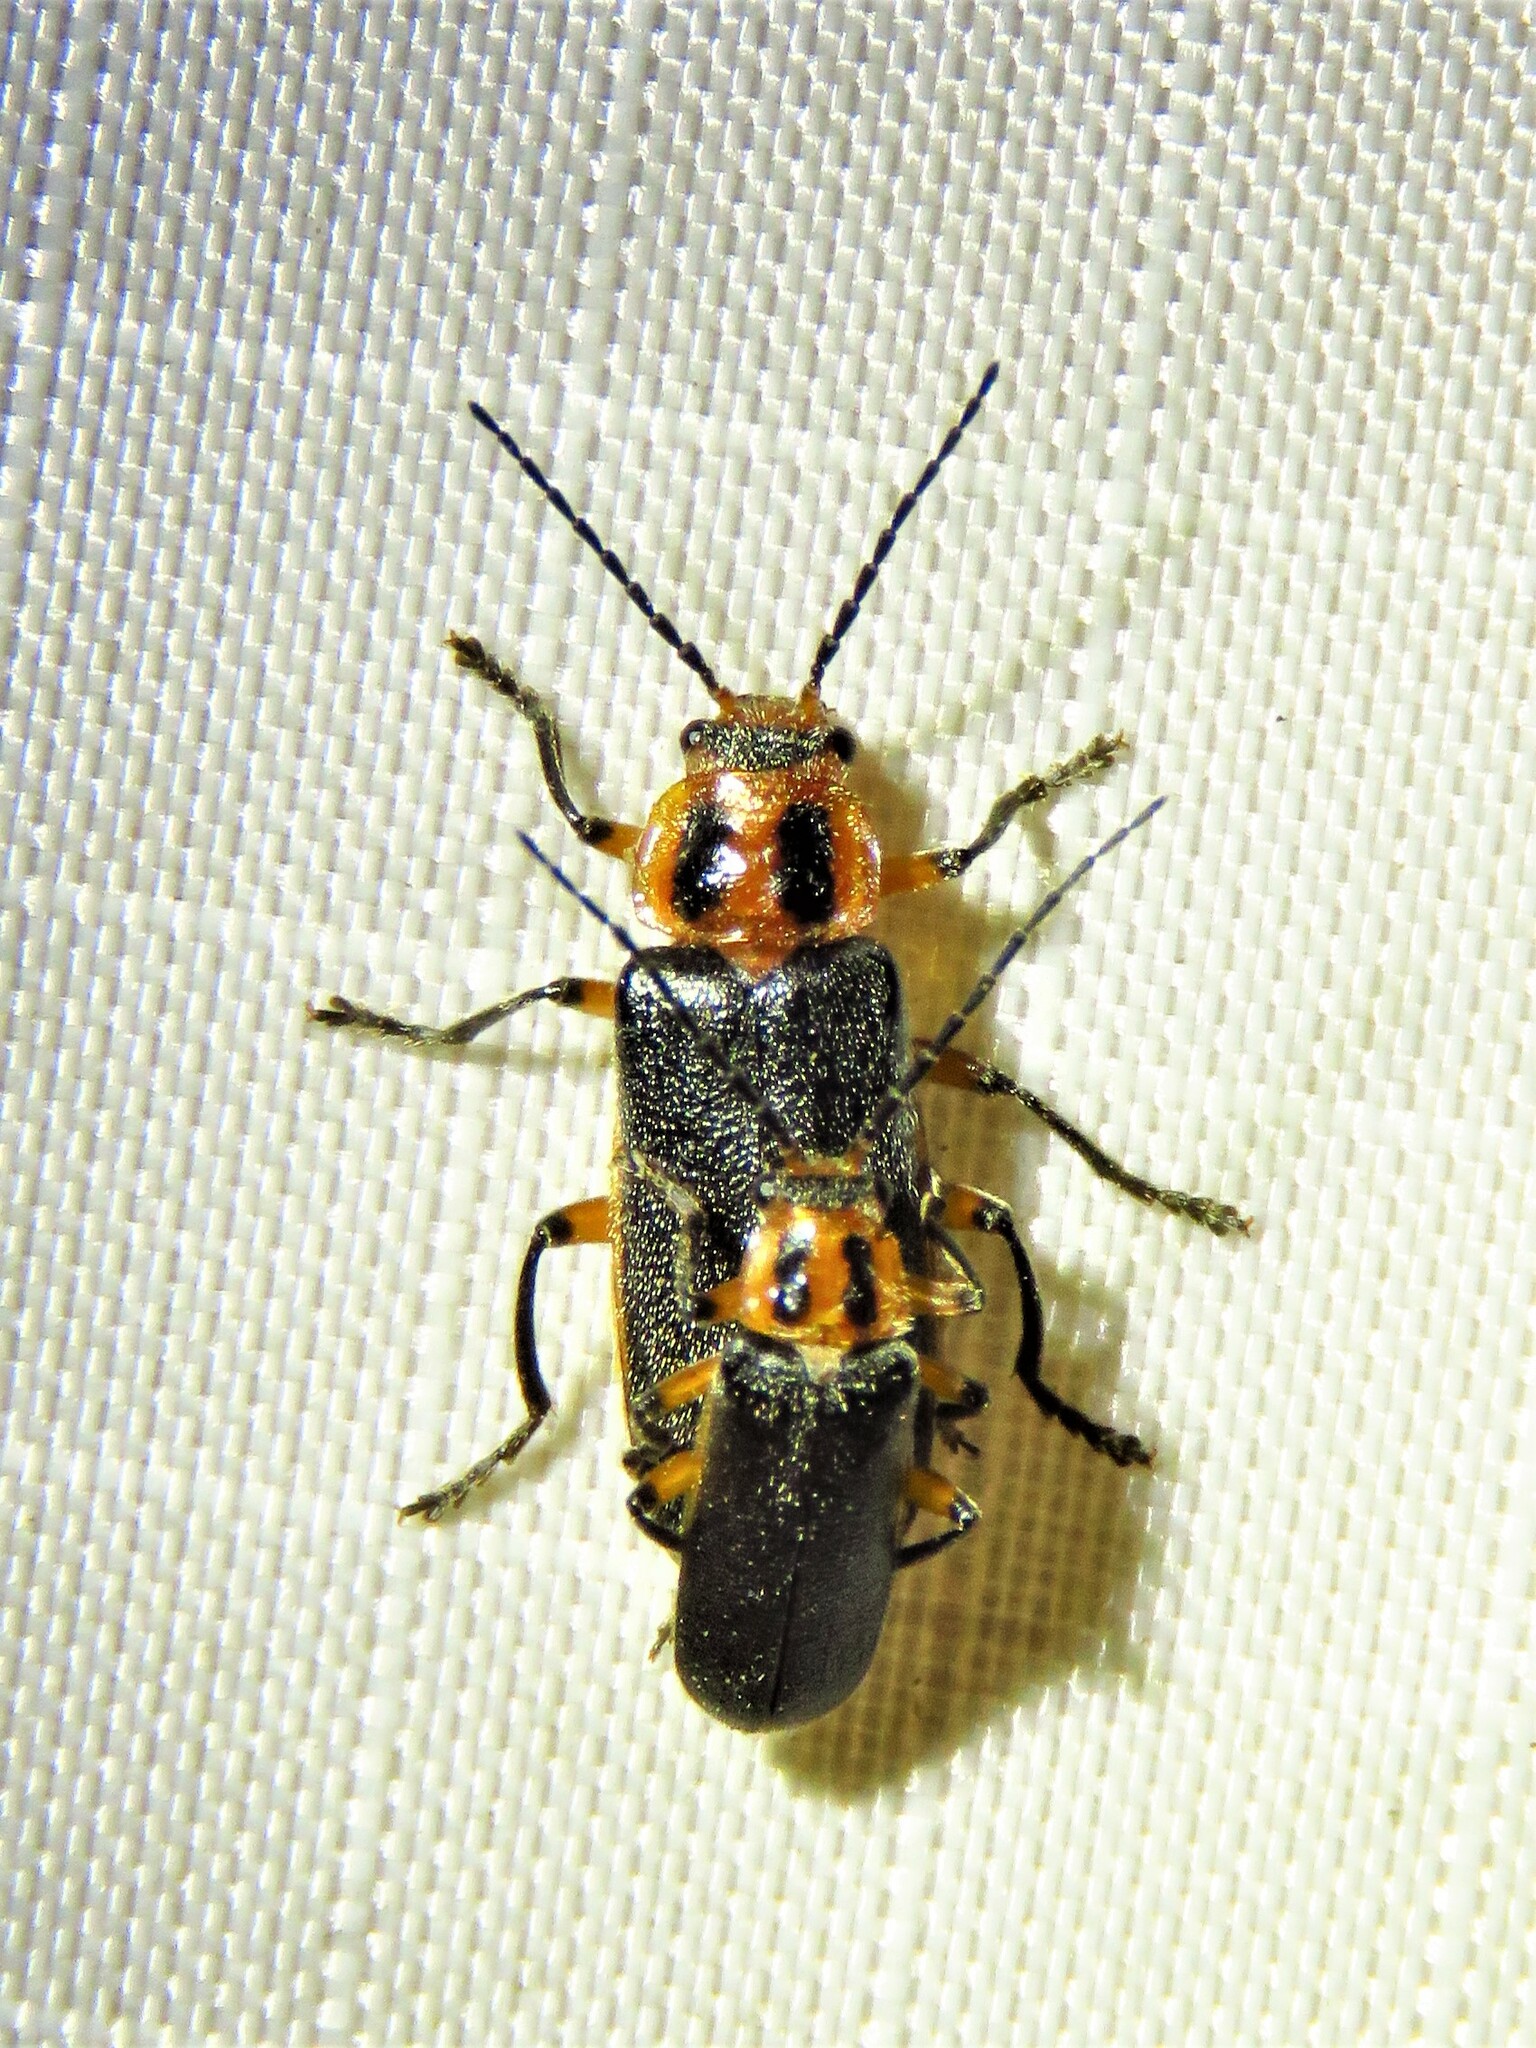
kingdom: Animalia
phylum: Arthropoda
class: Insecta
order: Coleoptera
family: Cantharidae
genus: Atalantycha
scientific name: Atalantycha bilineata
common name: Two-lined leatherwing
